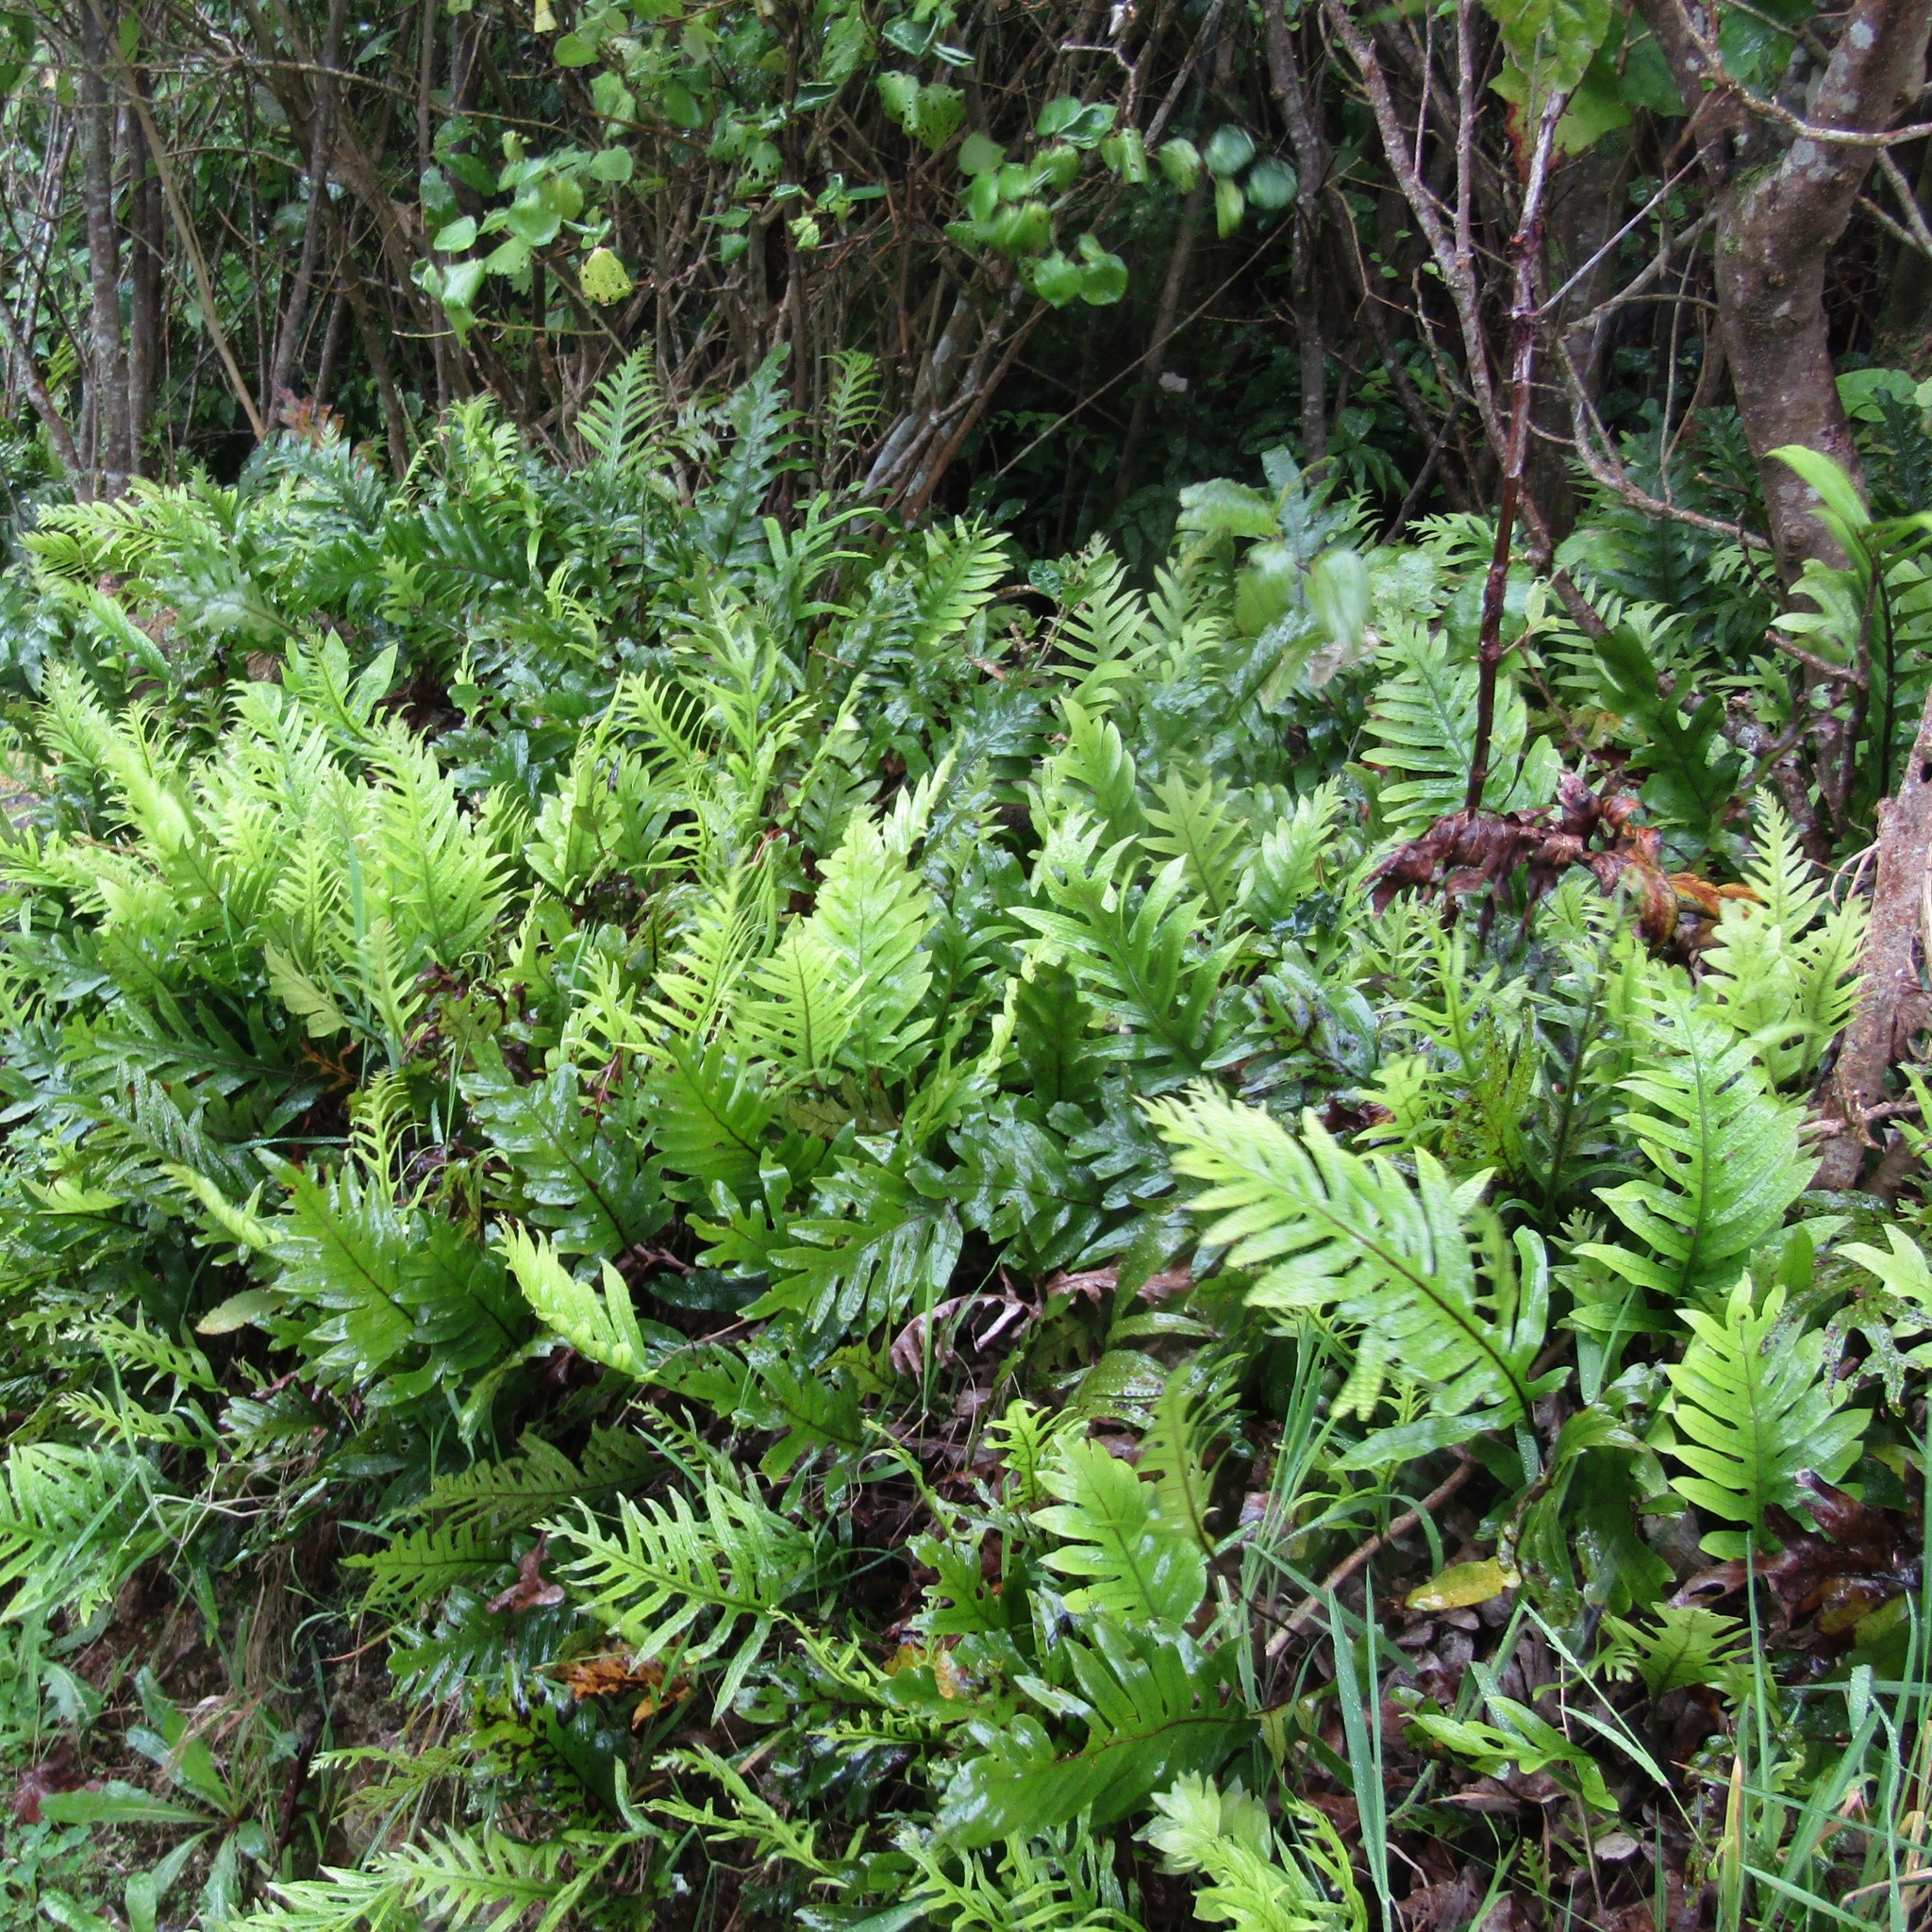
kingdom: Plantae
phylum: Tracheophyta
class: Polypodiopsida
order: Polypodiales
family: Polypodiaceae
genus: Lecanopteris
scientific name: Lecanopteris pustulata
